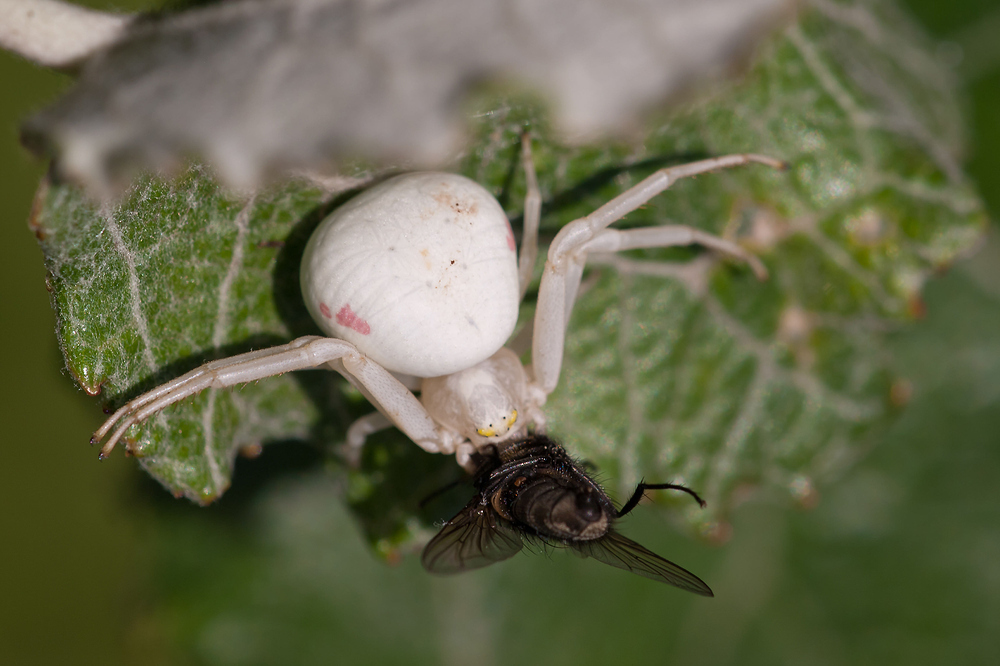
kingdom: Animalia
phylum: Arthropoda
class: Arachnida
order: Araneae
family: Thomisidae
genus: Misumena
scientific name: Misumena vatia
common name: Goldenrod crab spider
